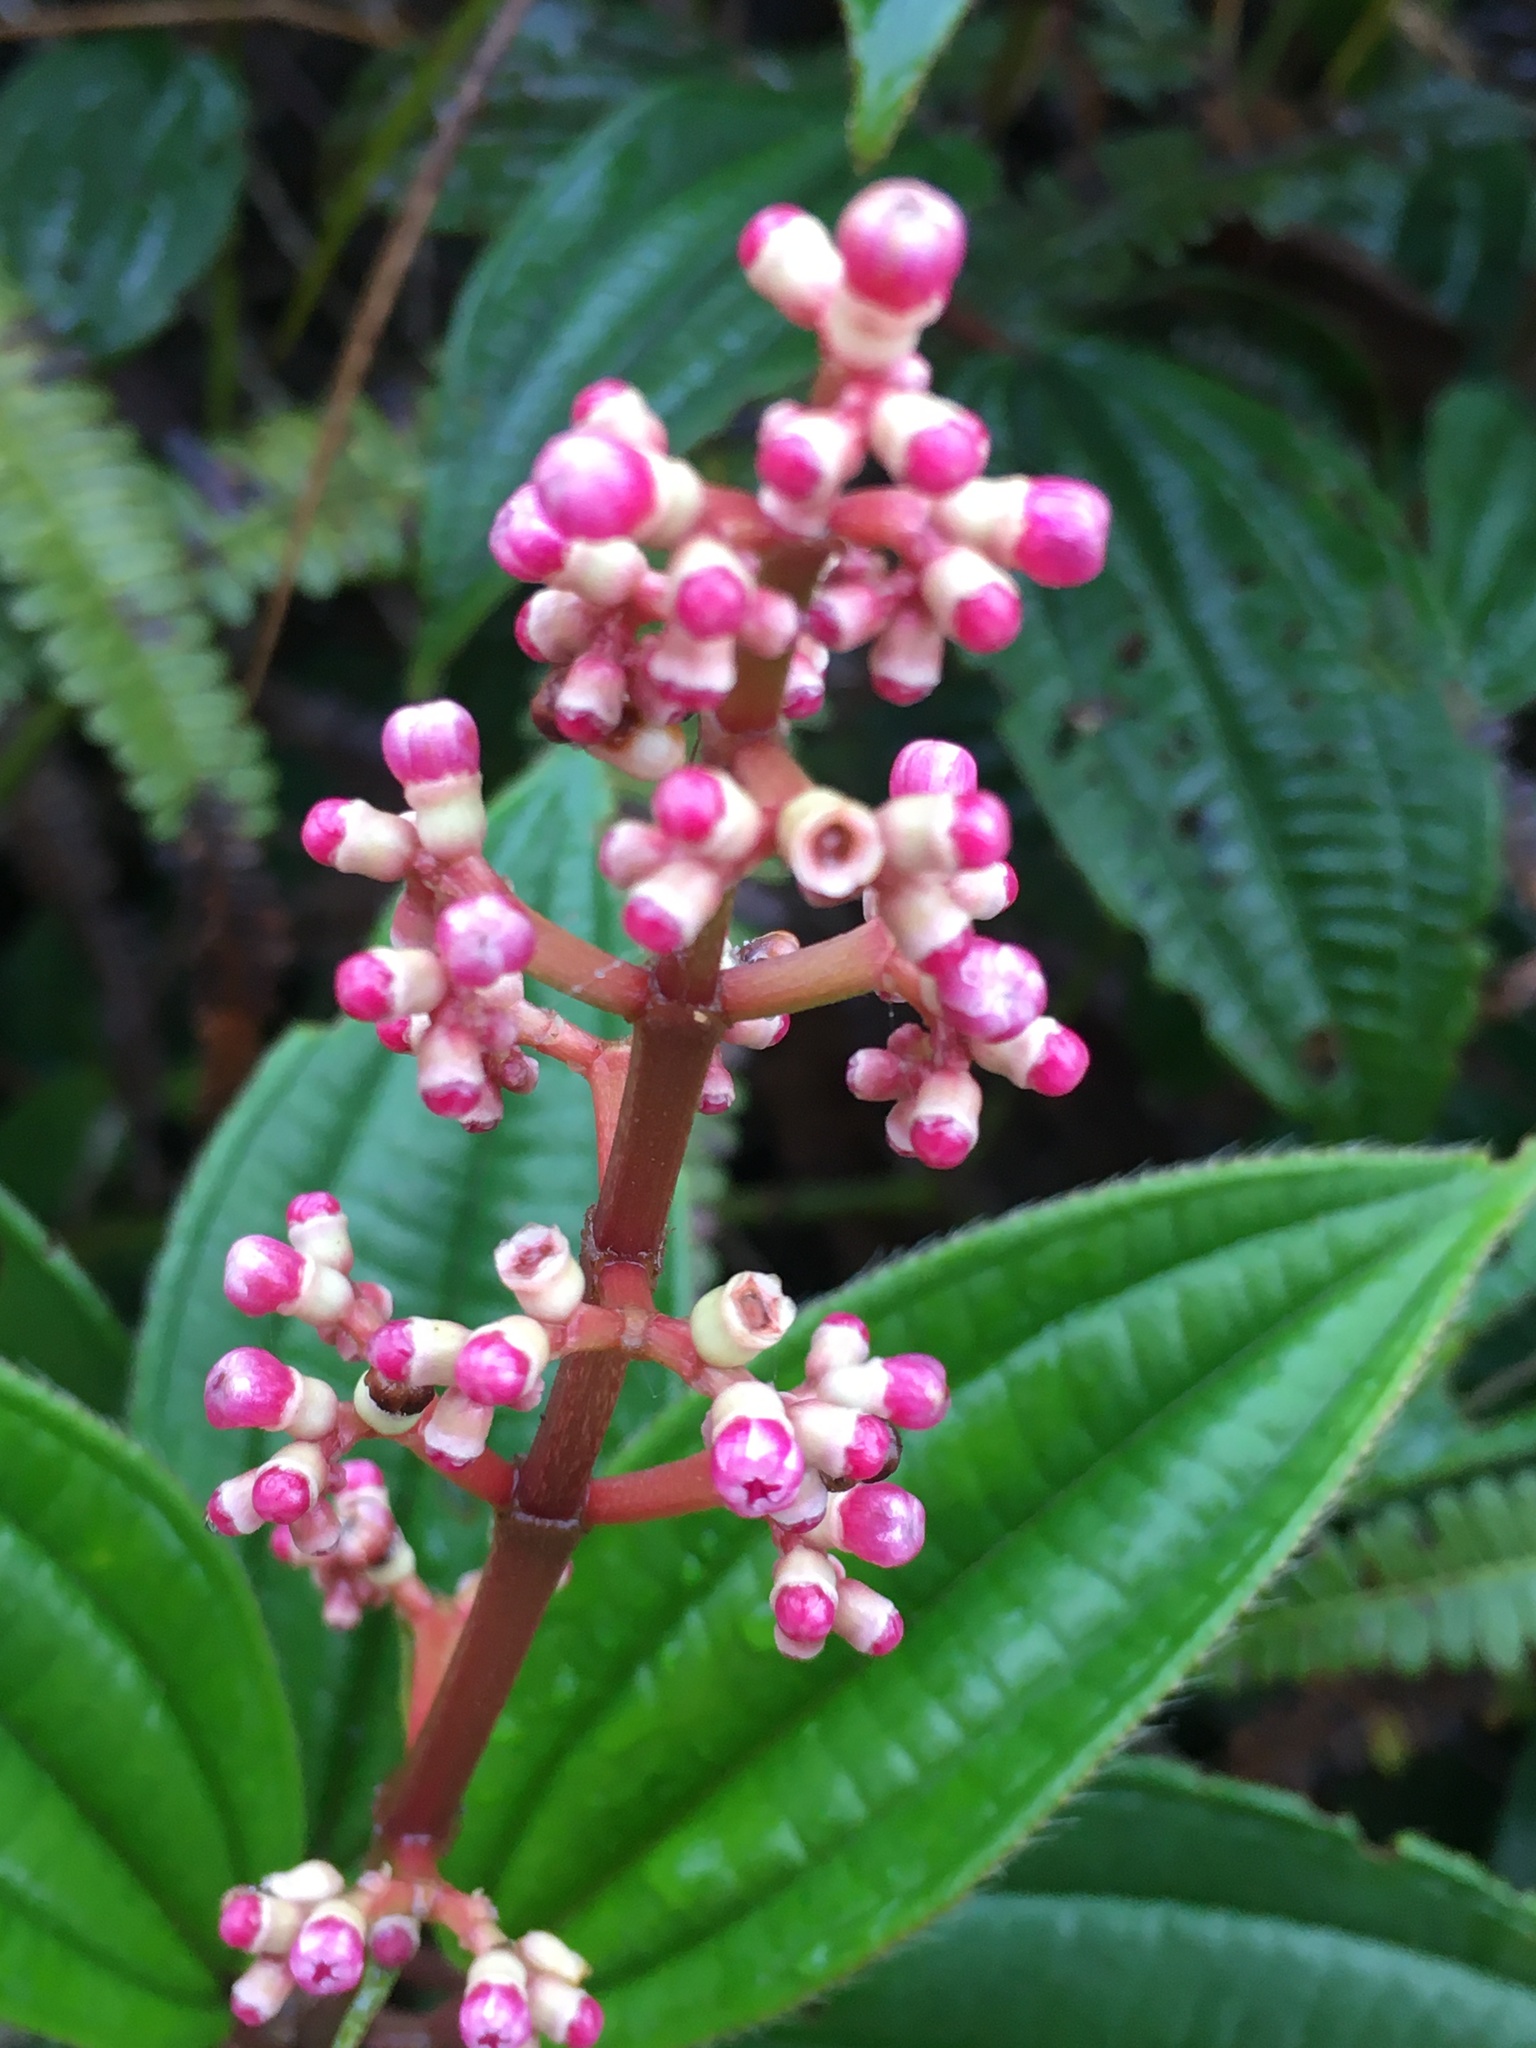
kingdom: Plantae
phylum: Tracheophyta
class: Magnoliopsida
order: Myrtales
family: Melastomataceae
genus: Miconia
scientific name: Miconia ciliata
